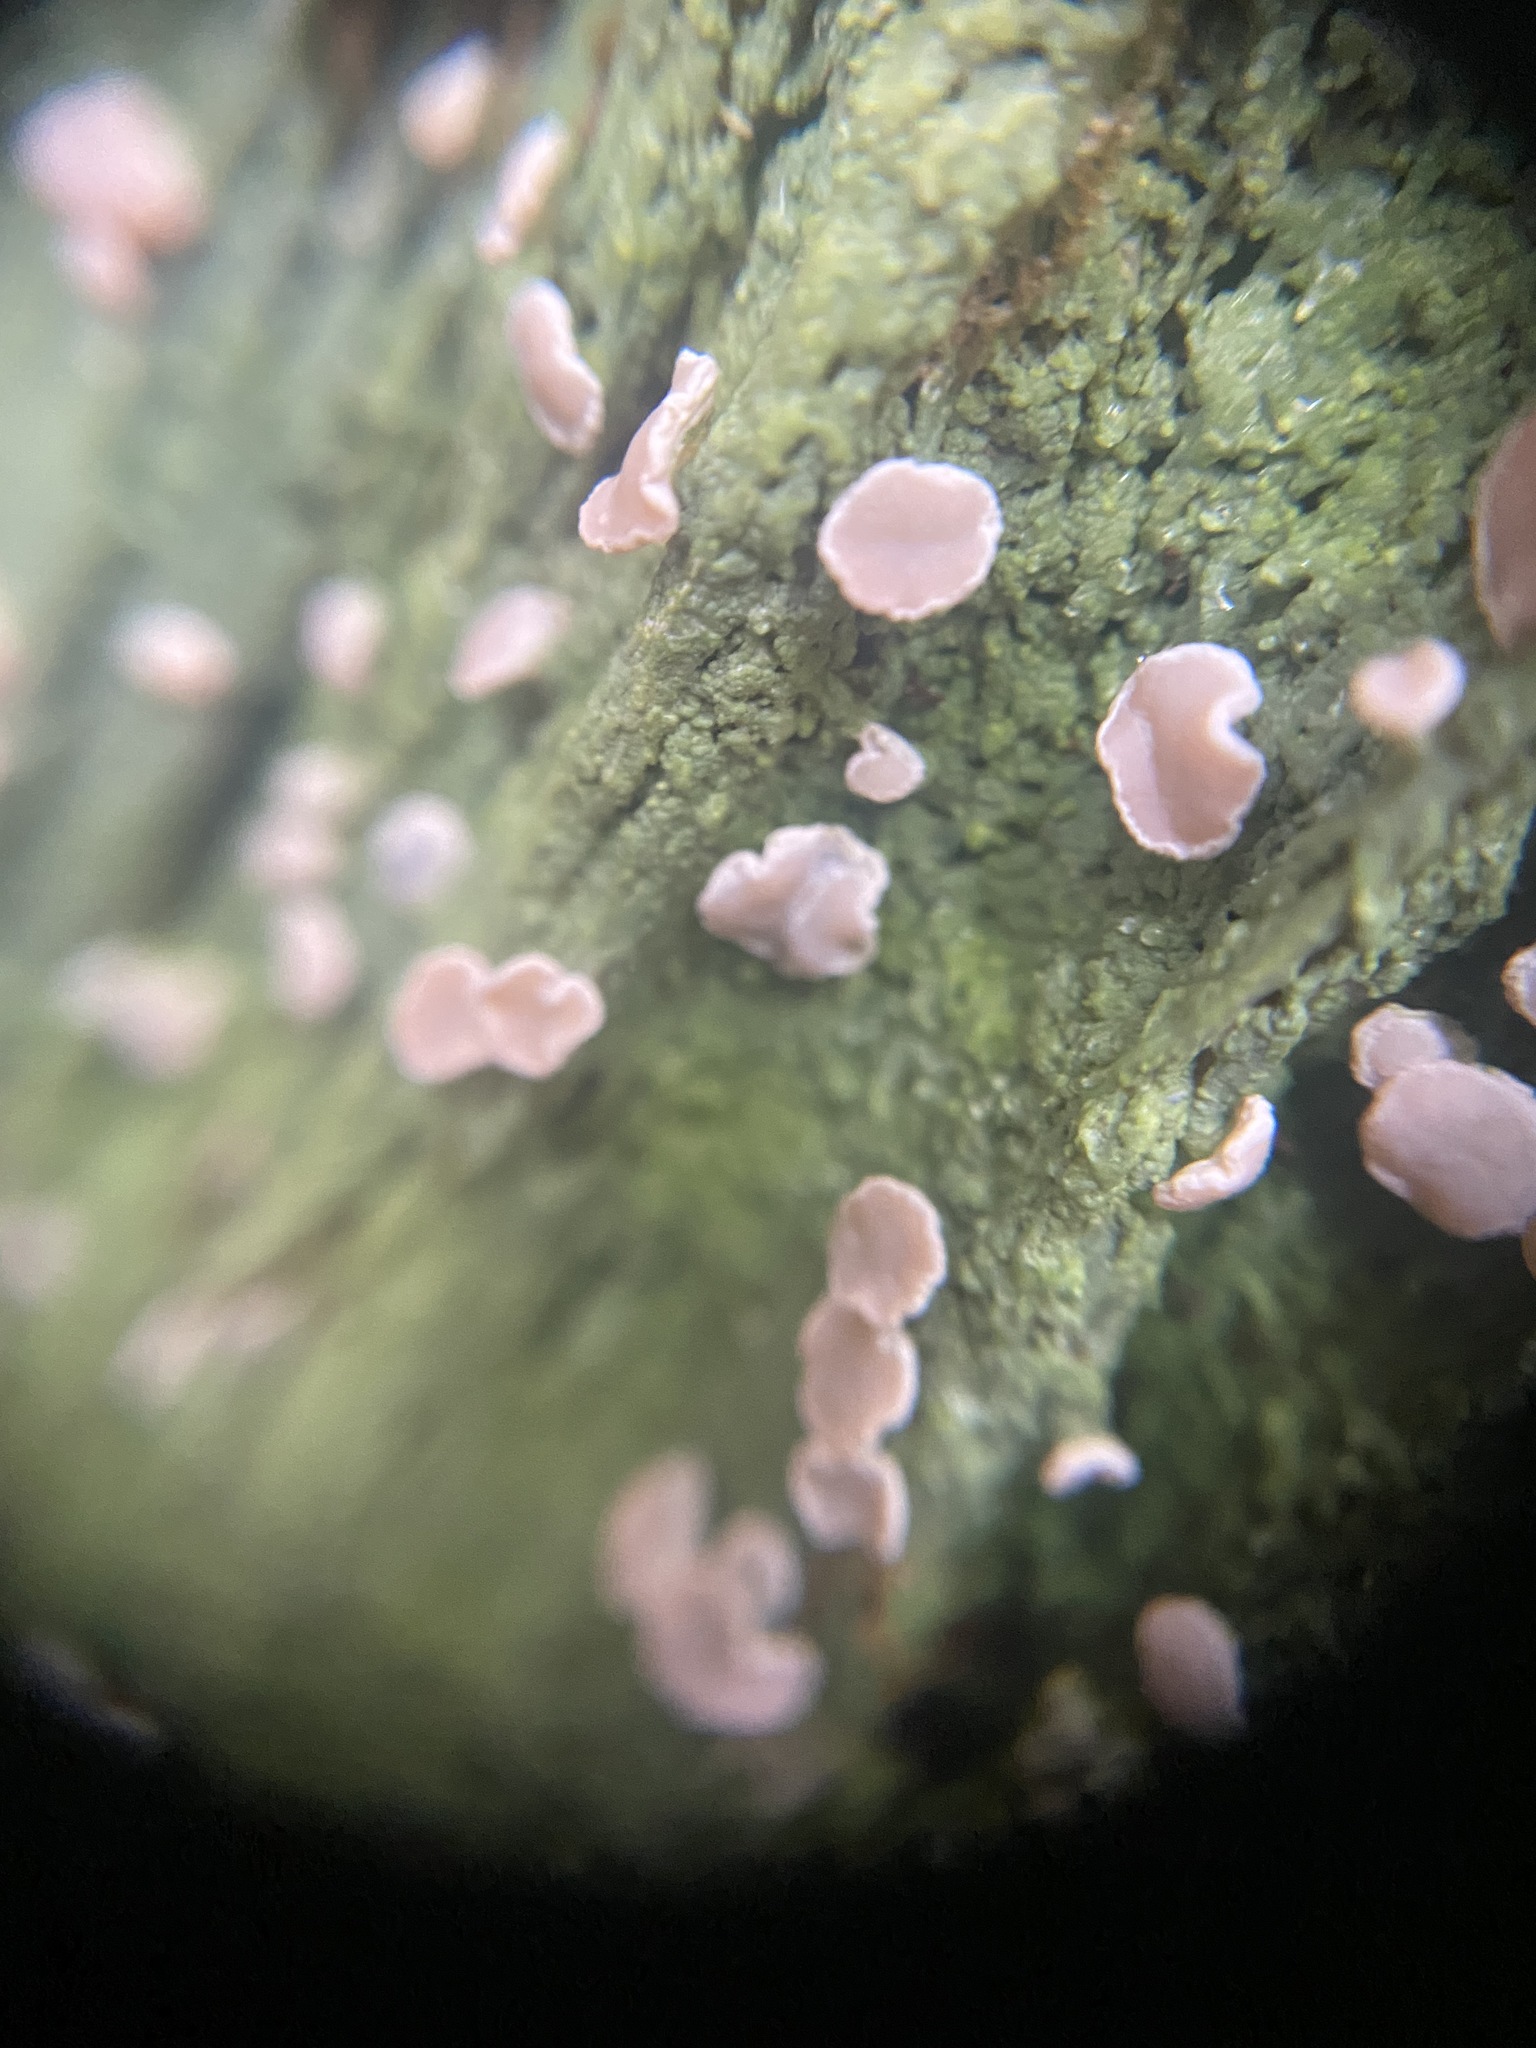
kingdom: Fungi
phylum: Ascomycota
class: Lecanoromycetes
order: Pertusariales
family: Icmadophilaceae
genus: Icmadophila
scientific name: Icmadophila ericetorum
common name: Candy lichen
